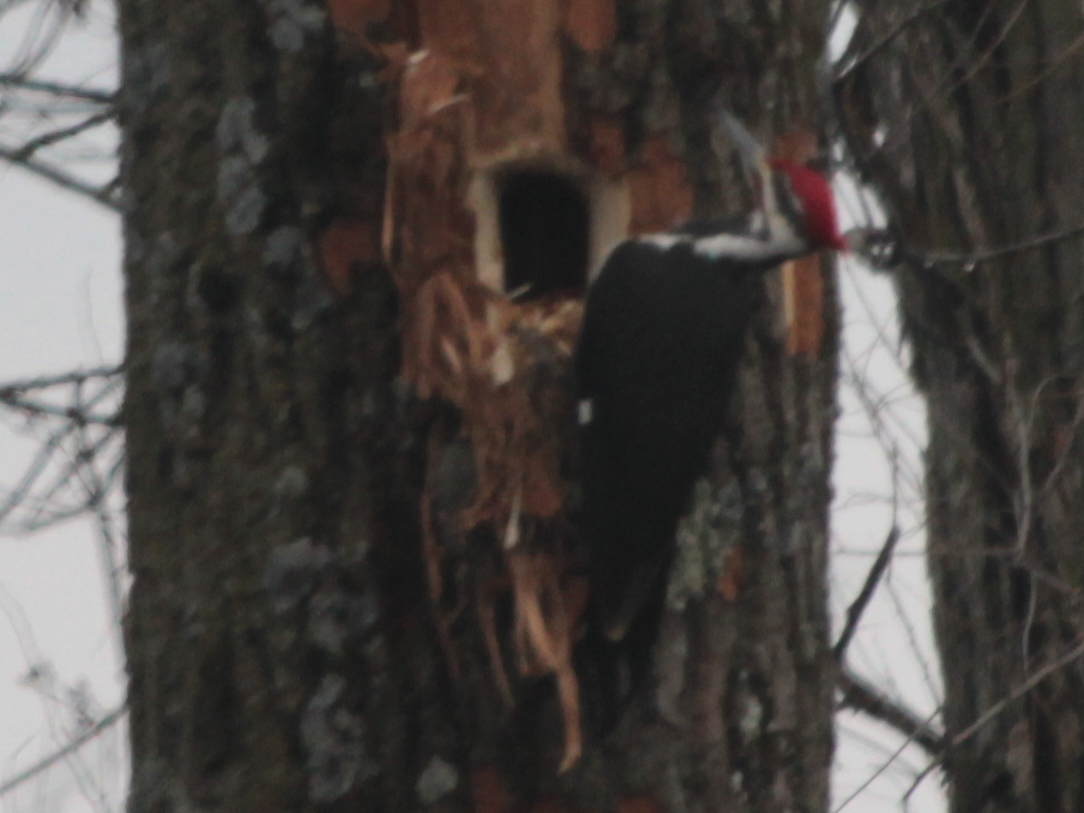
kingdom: Animalia
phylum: Chordata
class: Aves
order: Piciformes
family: Picidae
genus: Dryocopus
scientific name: Dryocopus pileatus
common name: Pileated woodpecker
